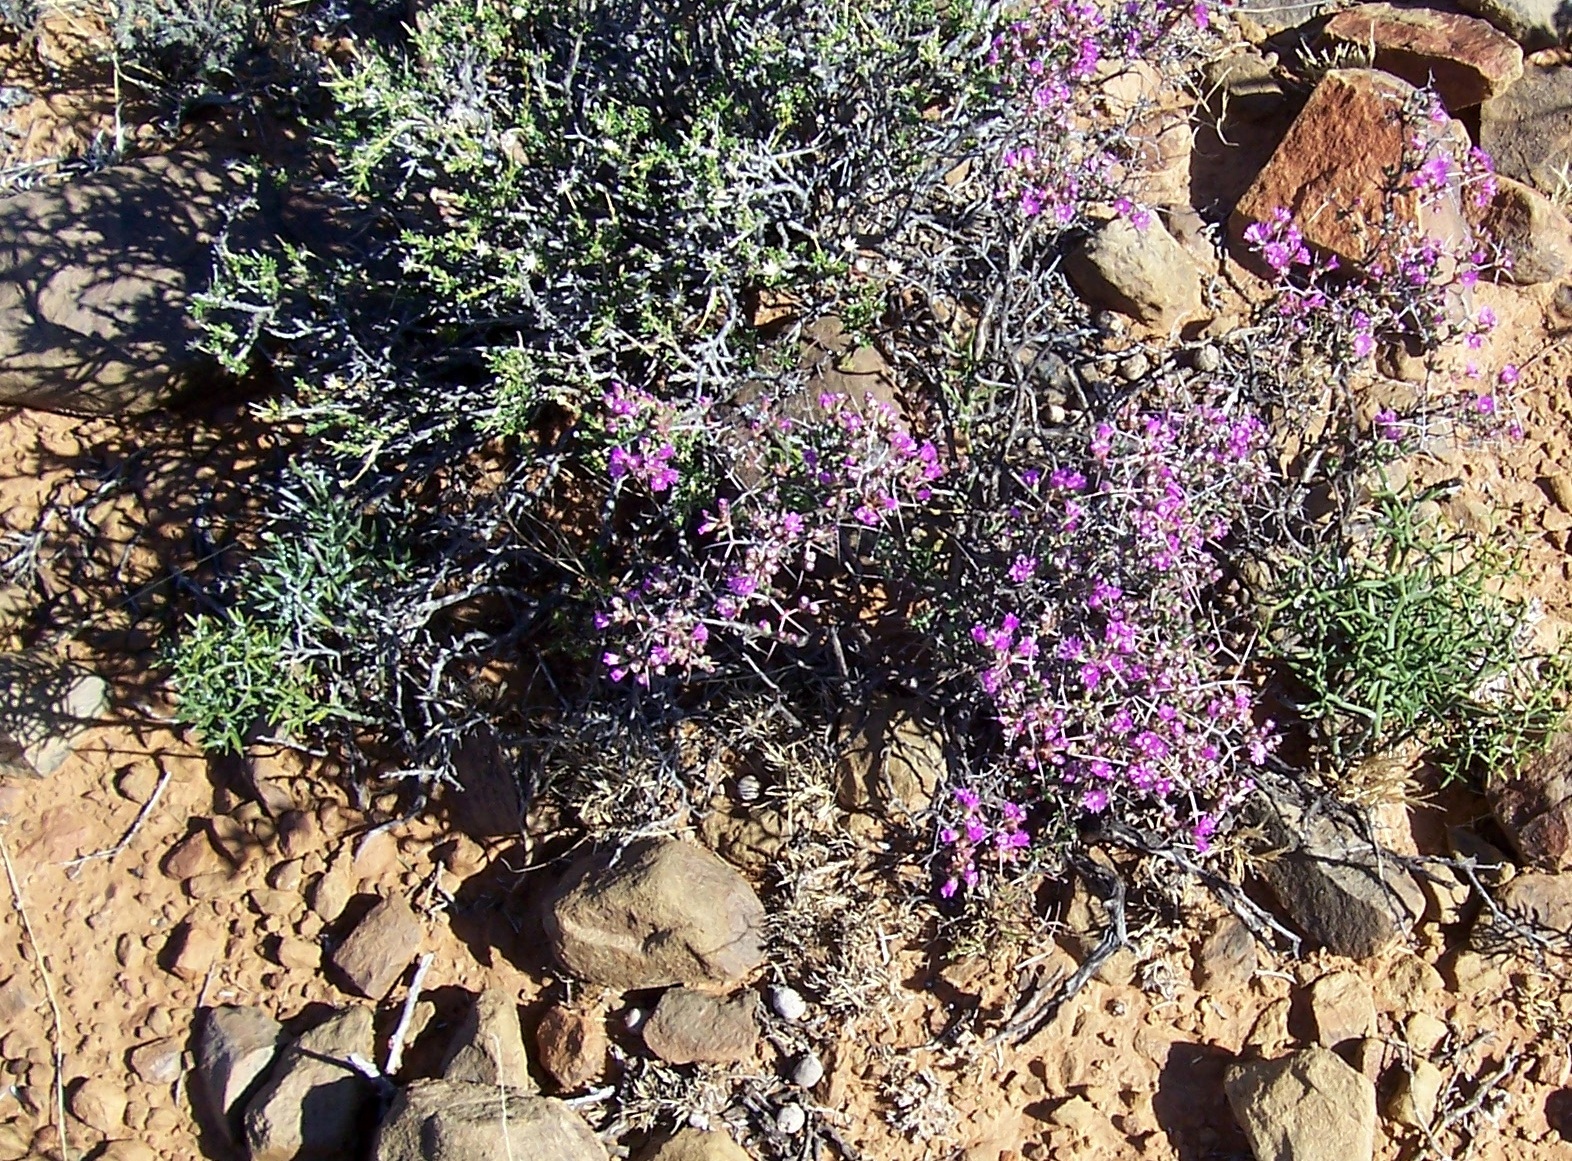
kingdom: Plantae
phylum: Tracheophyta
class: Magnoliopsida
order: Caryophyllales
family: Aizoaceae
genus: Ruschia
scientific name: Ruschia intricata
